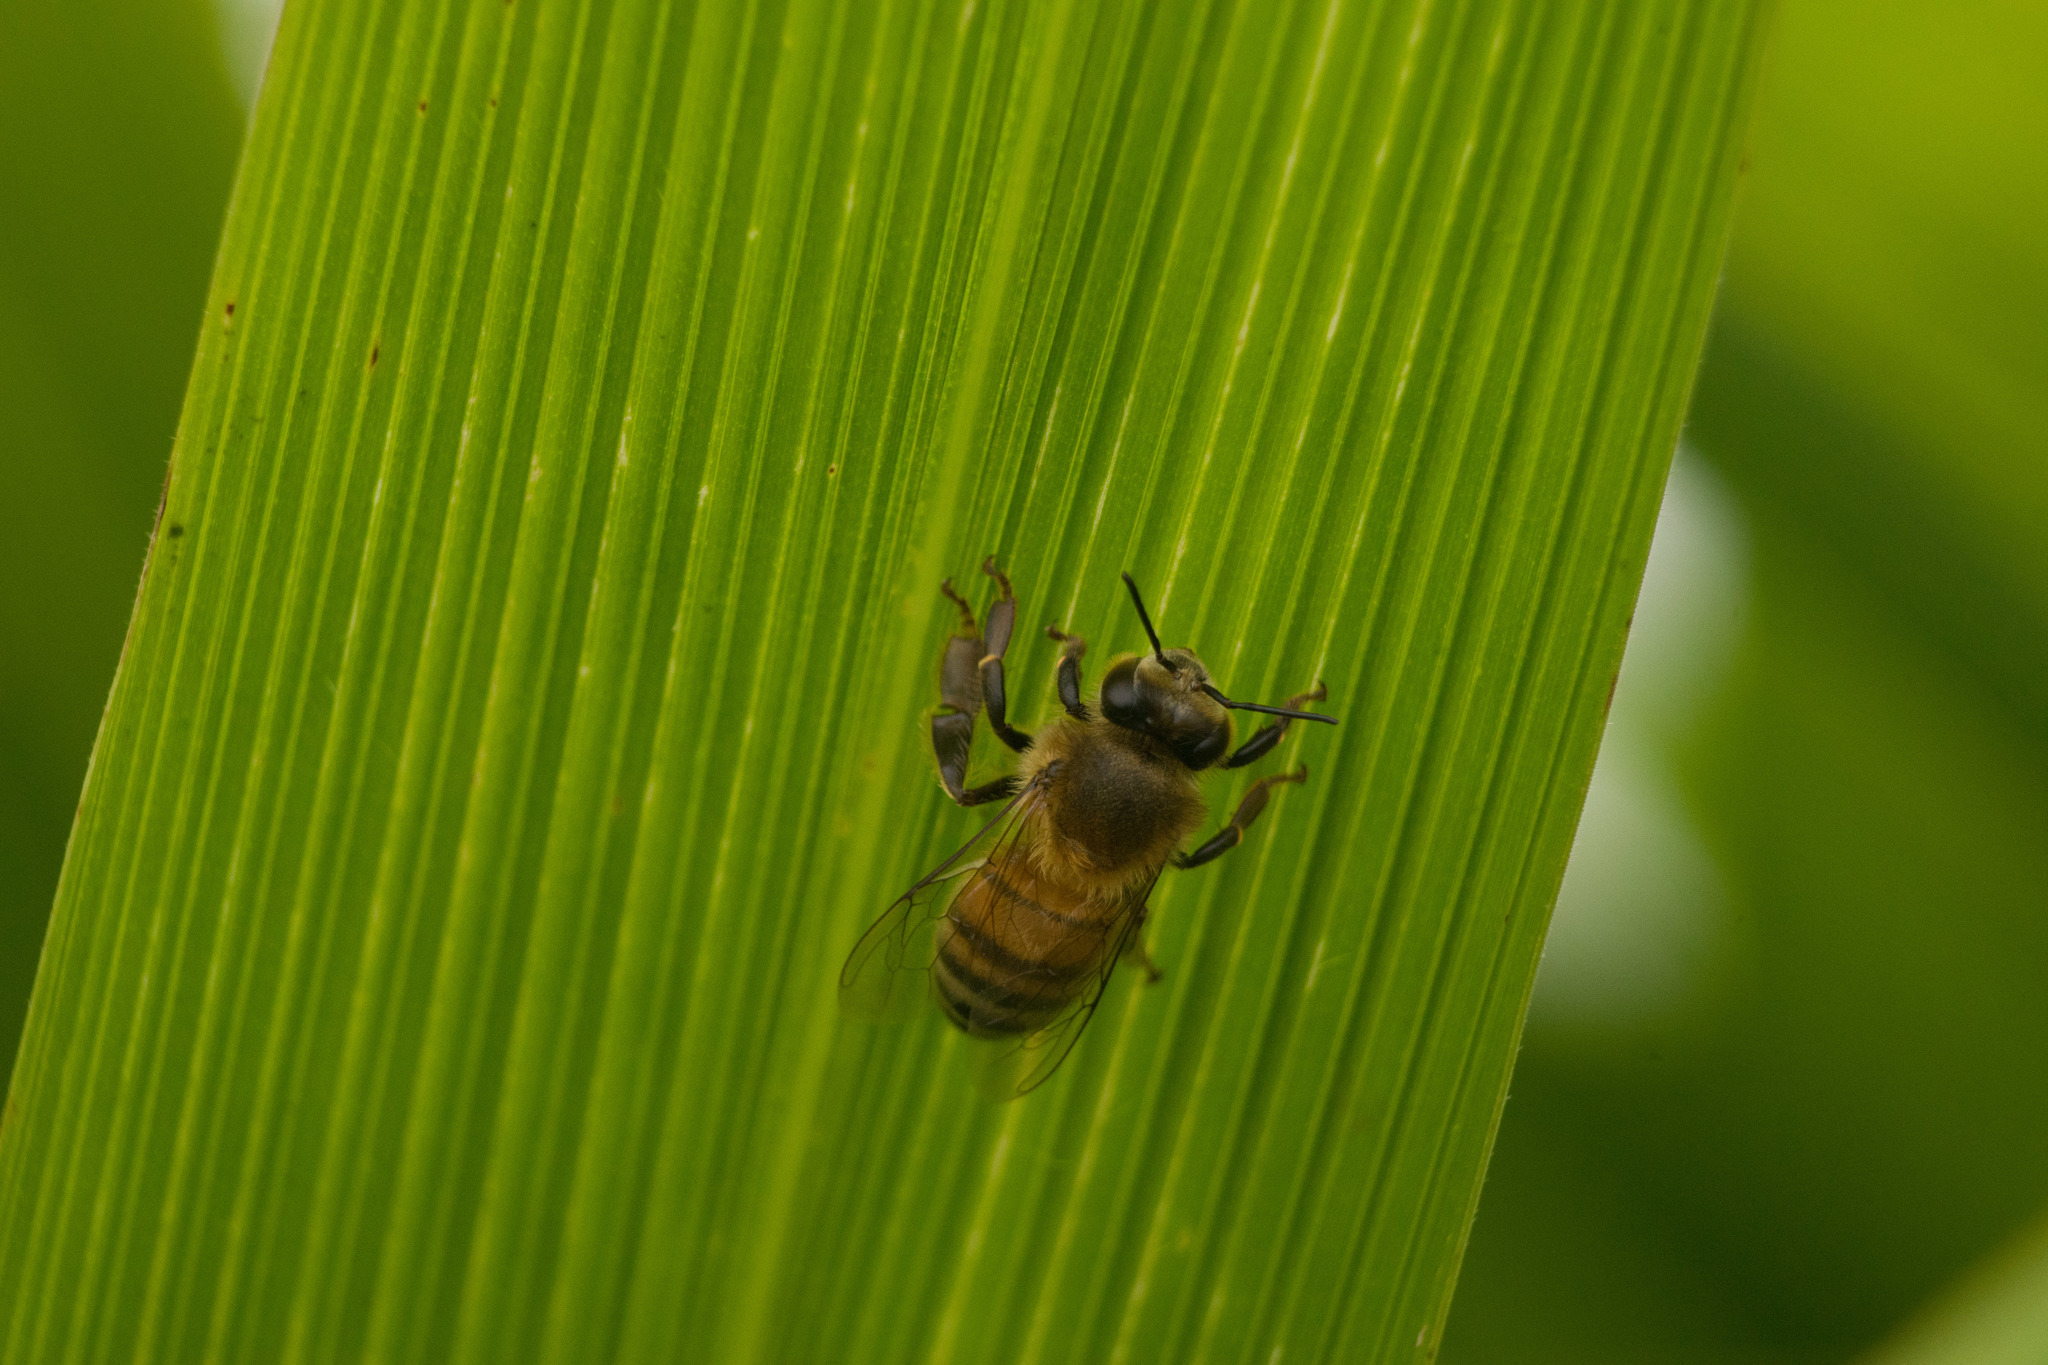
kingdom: Animalia
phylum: Arthropoda
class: Insecta
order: Hymenoptera
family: Apidae
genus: Apis
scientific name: Apis mellifera
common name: Honey bee
